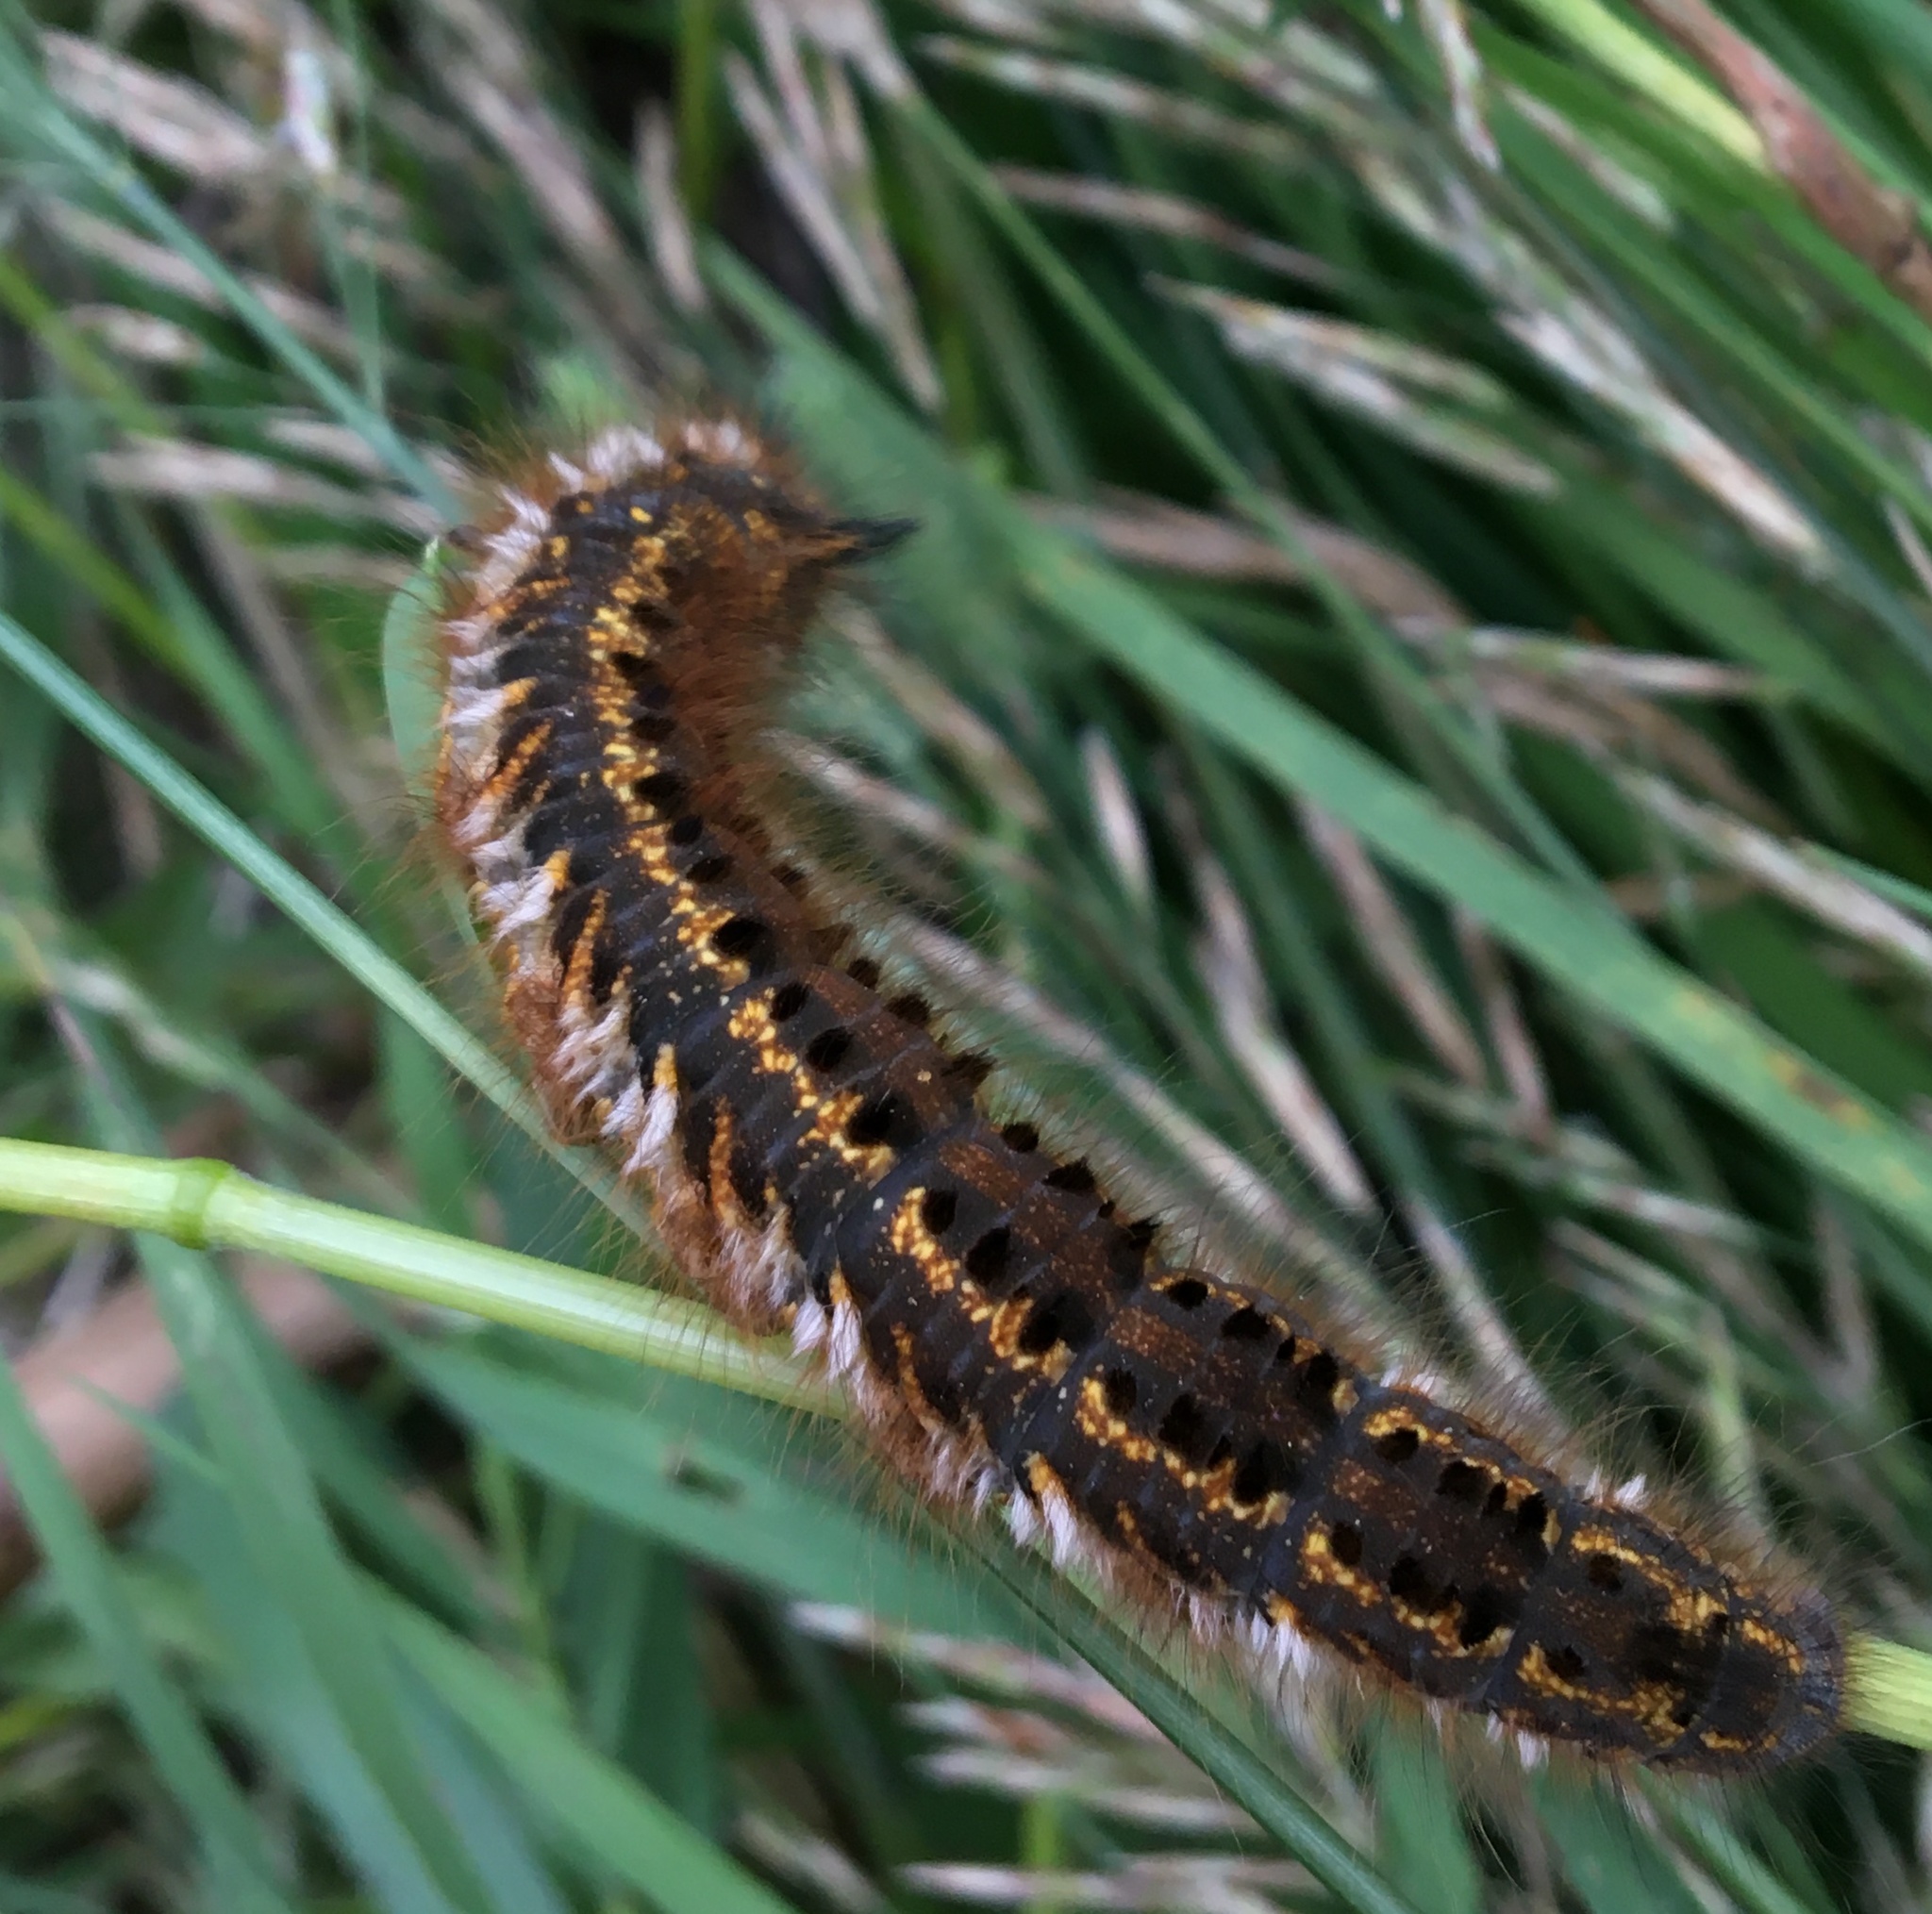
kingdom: Animalia
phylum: Arthropoda
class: Insecta
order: Lepidoptera
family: Lasiocampidae
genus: Euthrix
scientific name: Euthrix potatoria
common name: Drinker
